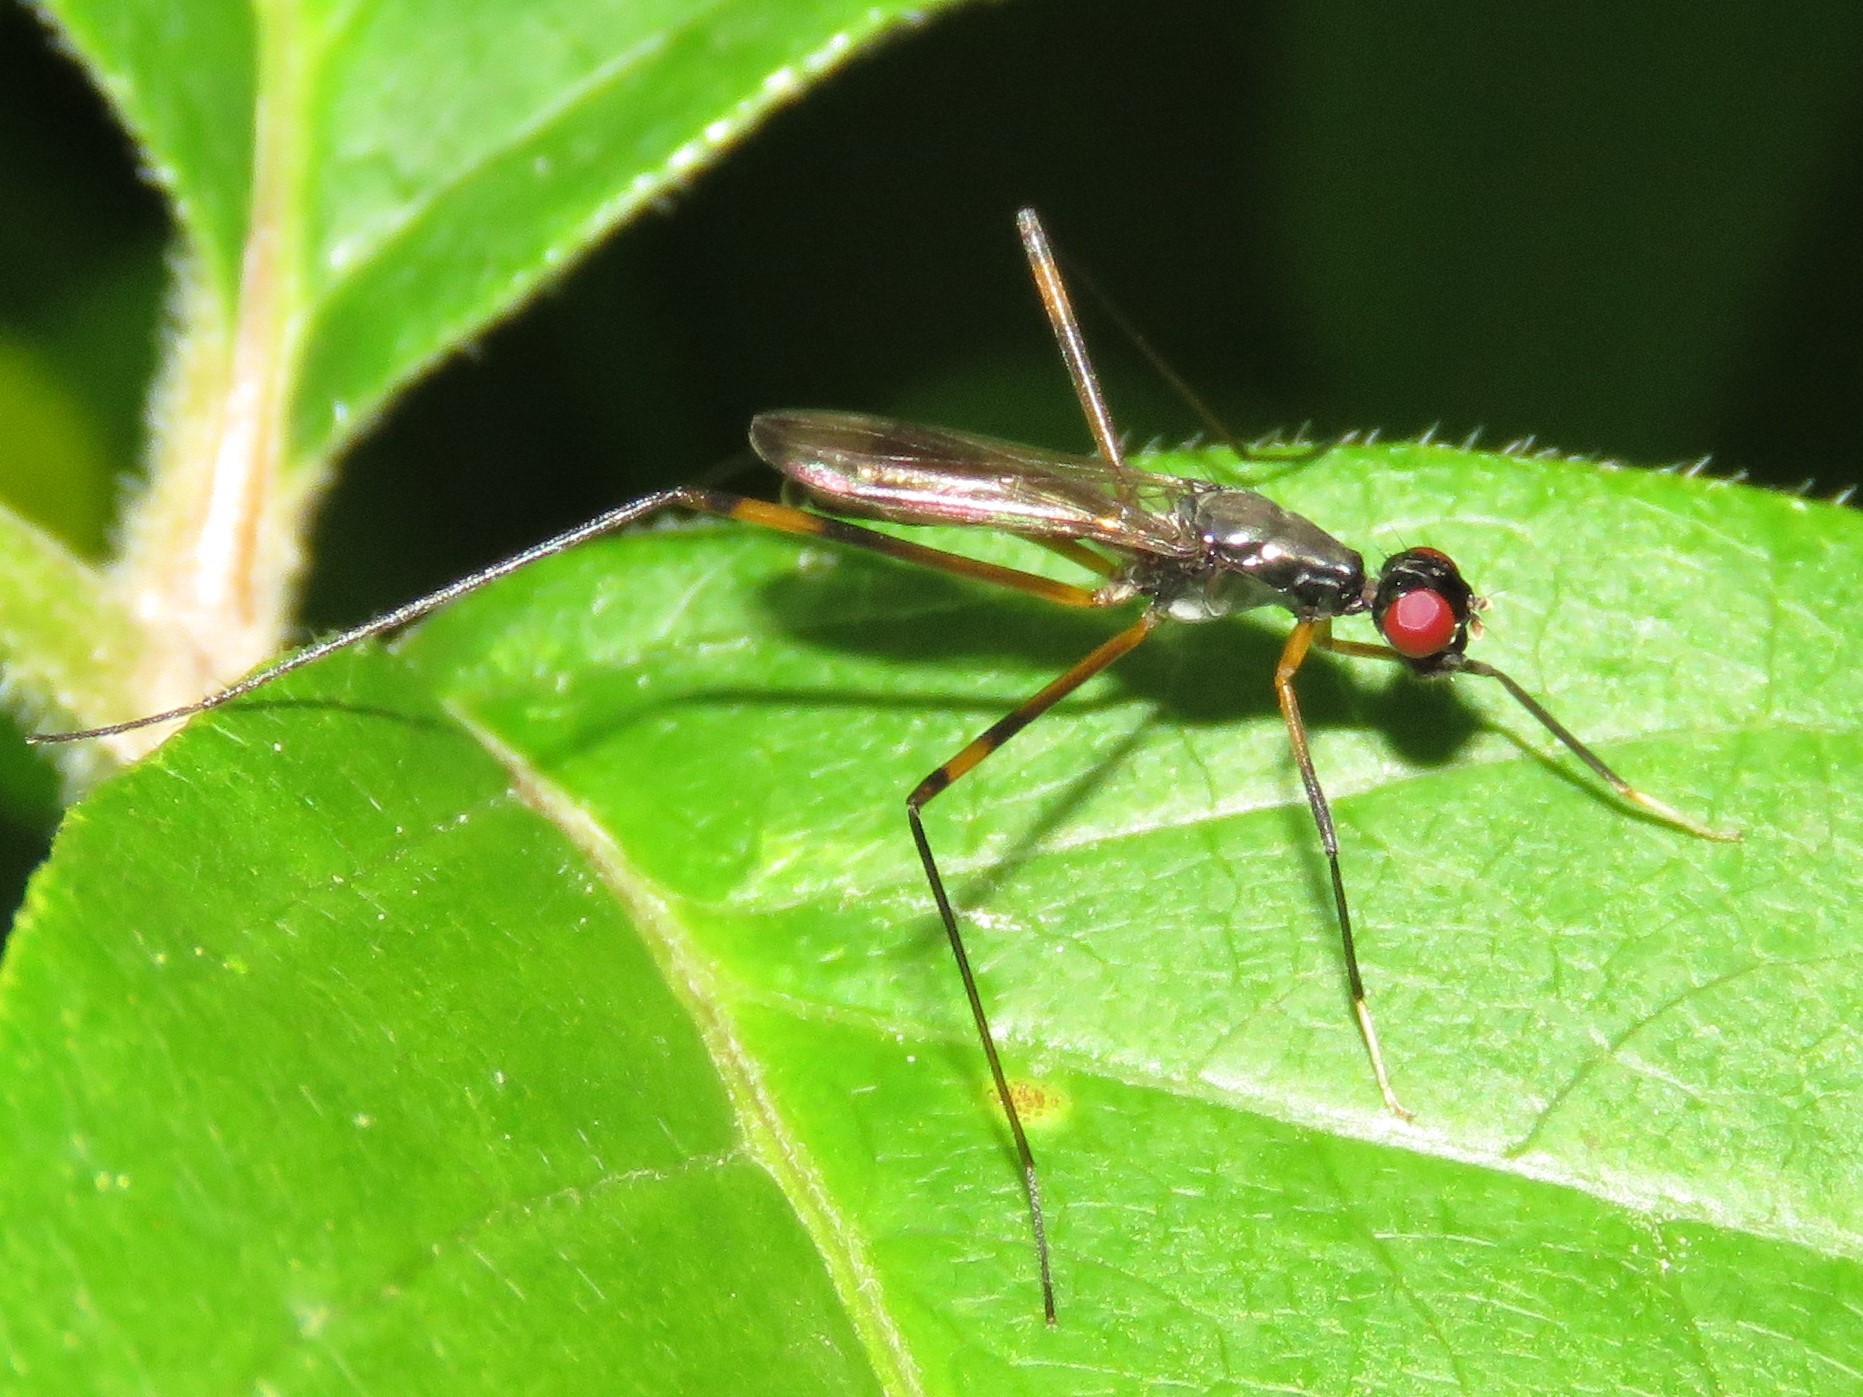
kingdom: Animalia
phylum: Arthropoda
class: Insecta
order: Diptera
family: Micropezidae
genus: Rainieria
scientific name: Rainieria antennaepes
